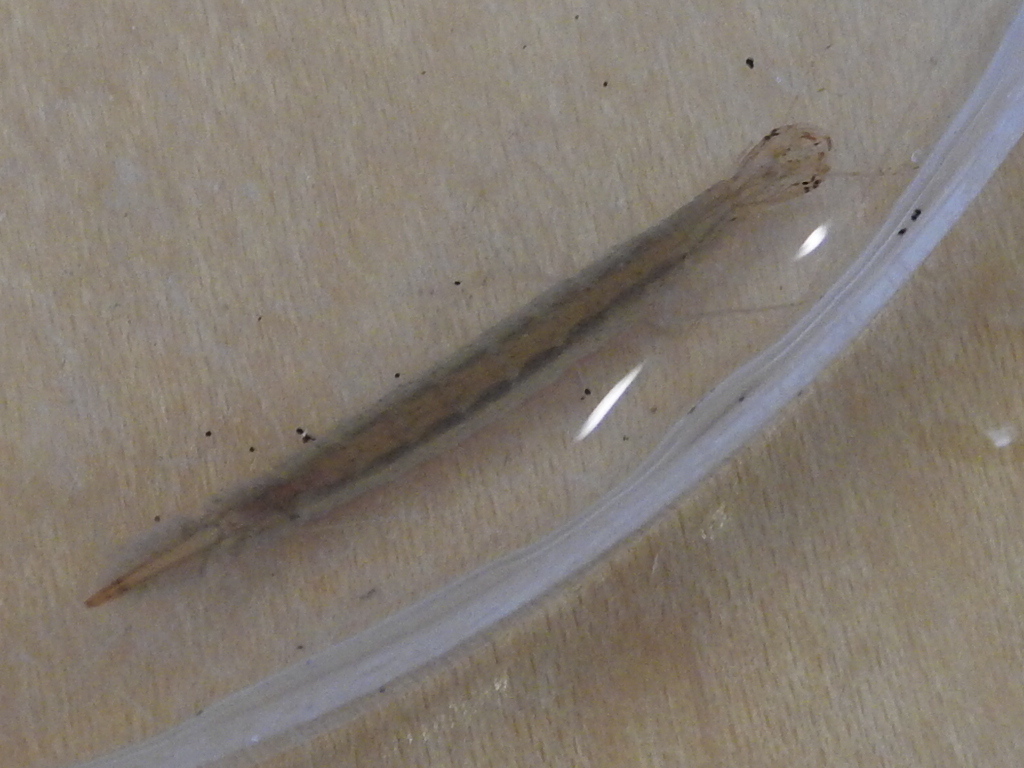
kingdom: Animalia
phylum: Arthropoda
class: Insecta
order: Coleoptera
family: Dytiscidae
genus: Cybister
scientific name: Cybister fimbriolatus
